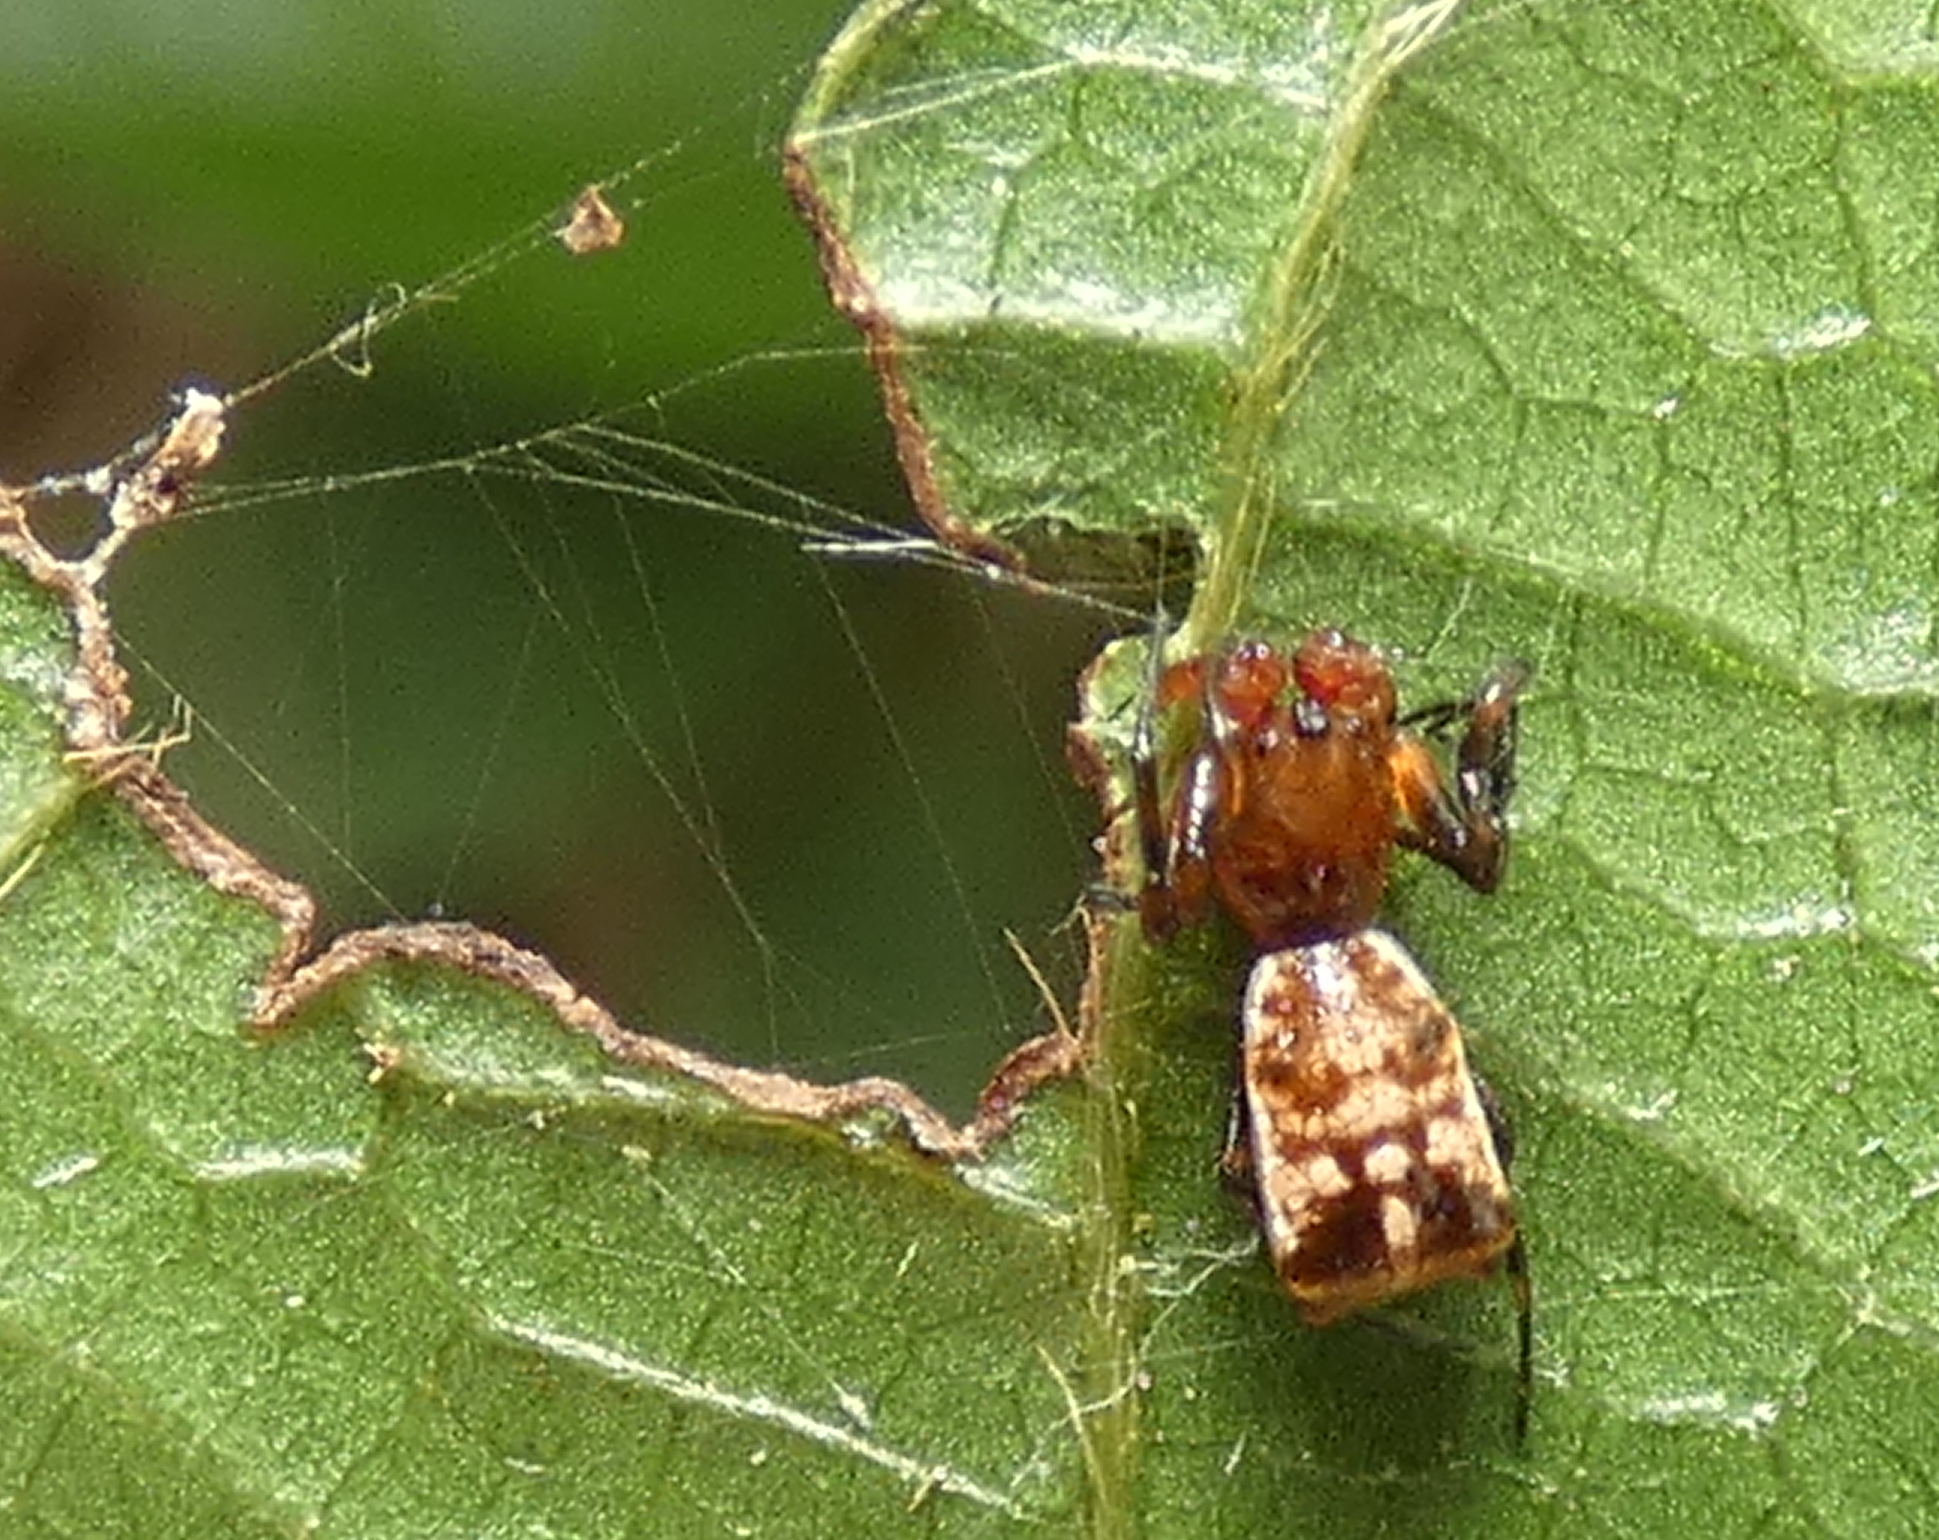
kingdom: Animalia
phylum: Arthropoda
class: Arachnida
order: Araneae
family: Araneidae
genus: Micrathena
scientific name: Micrathena picta
